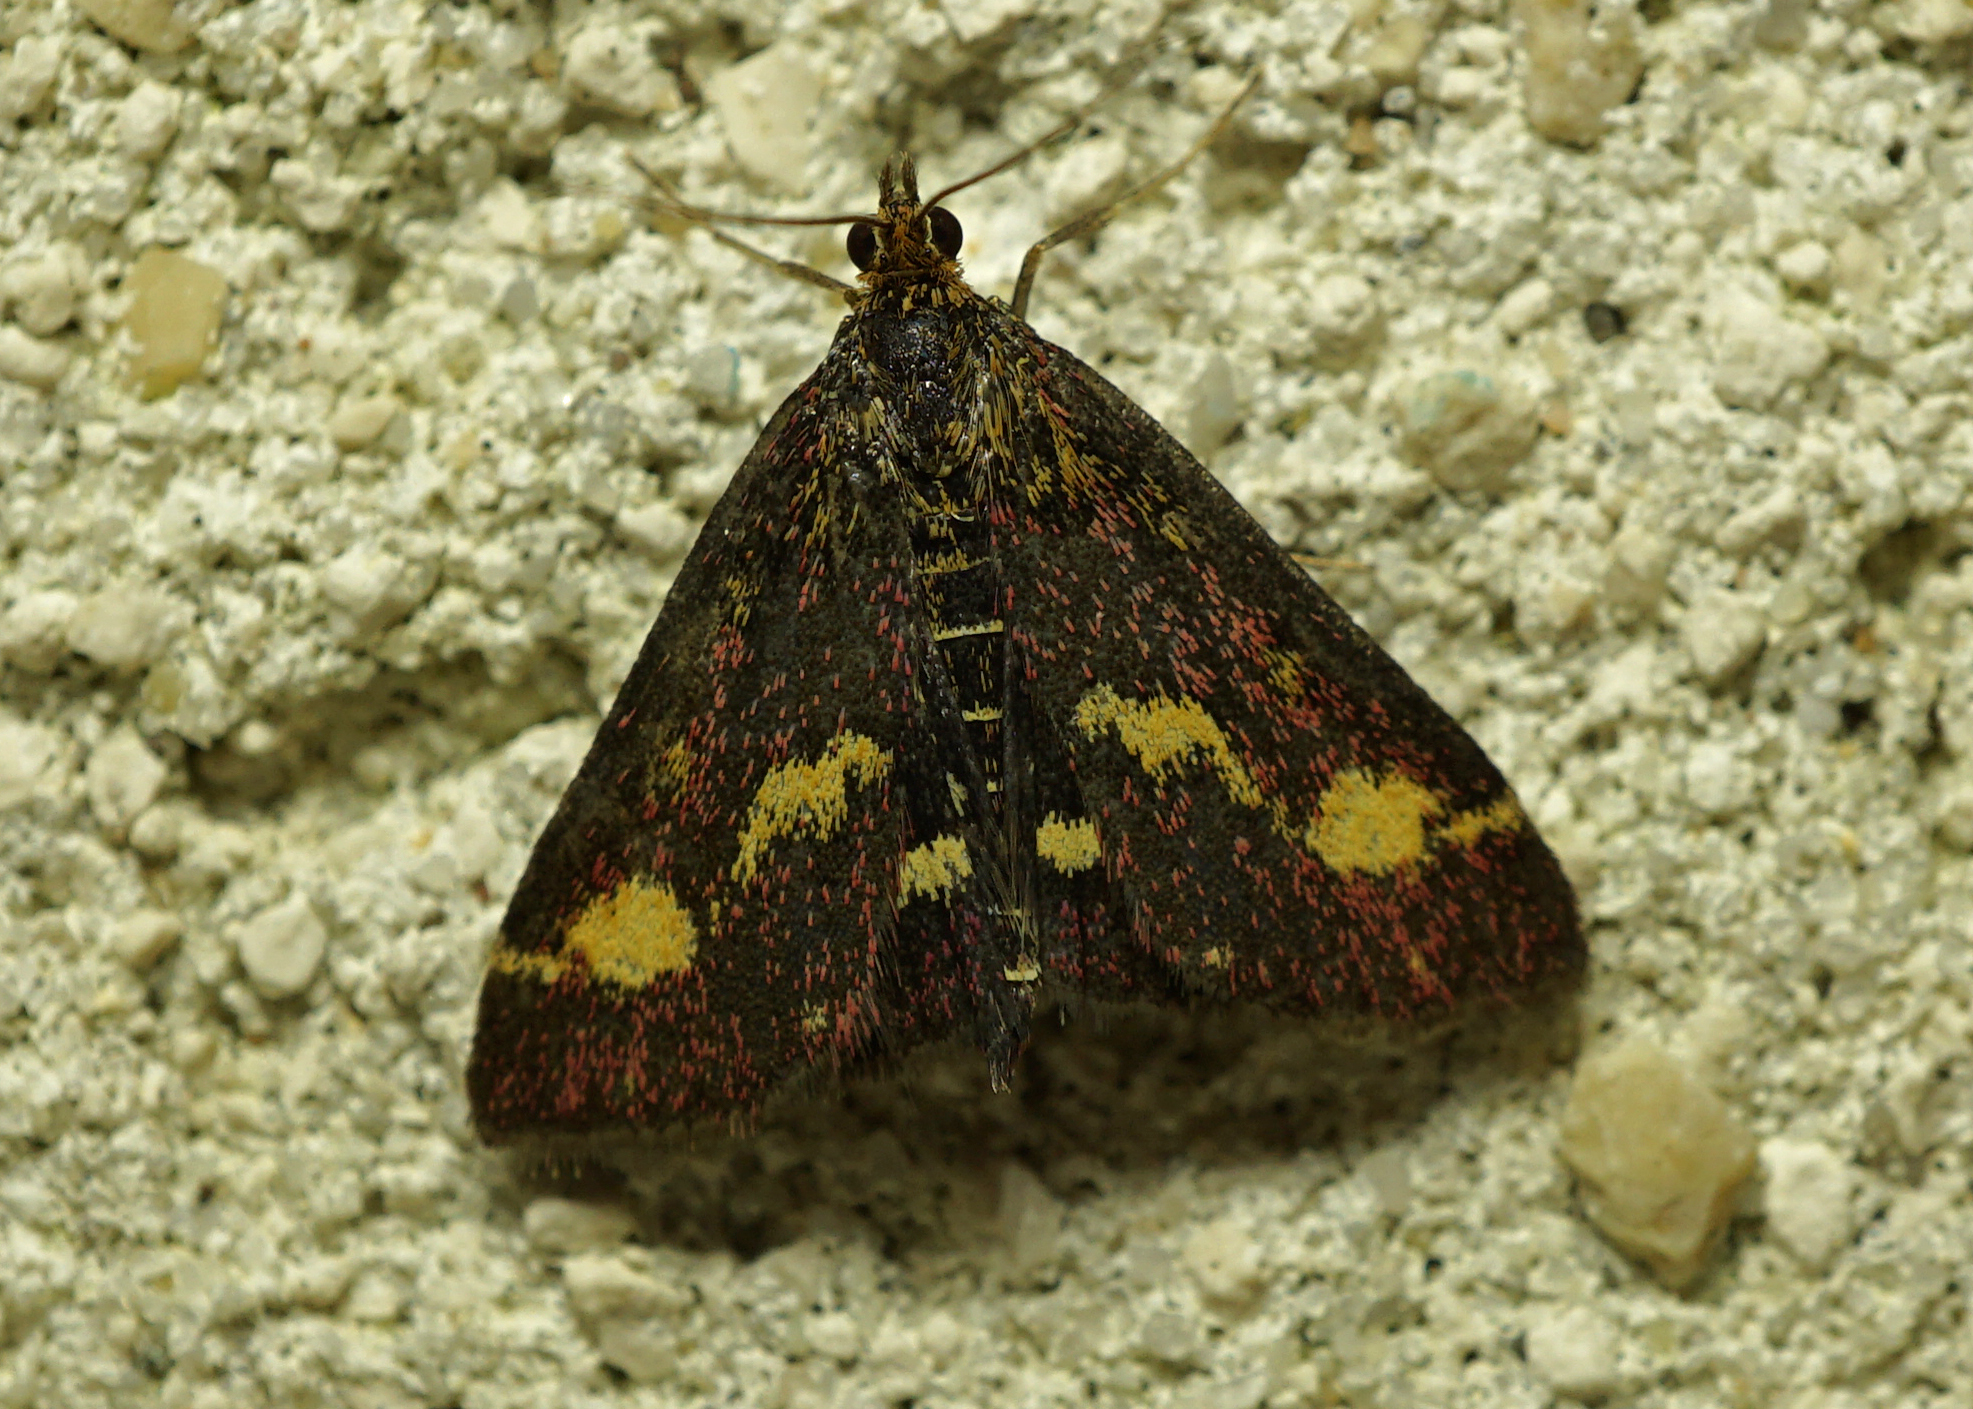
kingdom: Animalia
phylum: Arthropoda
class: Insecta
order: Lepidoptera
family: Crambidae
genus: Pyrausta
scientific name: Pyrausta purpuralis
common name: Common purple & gold
